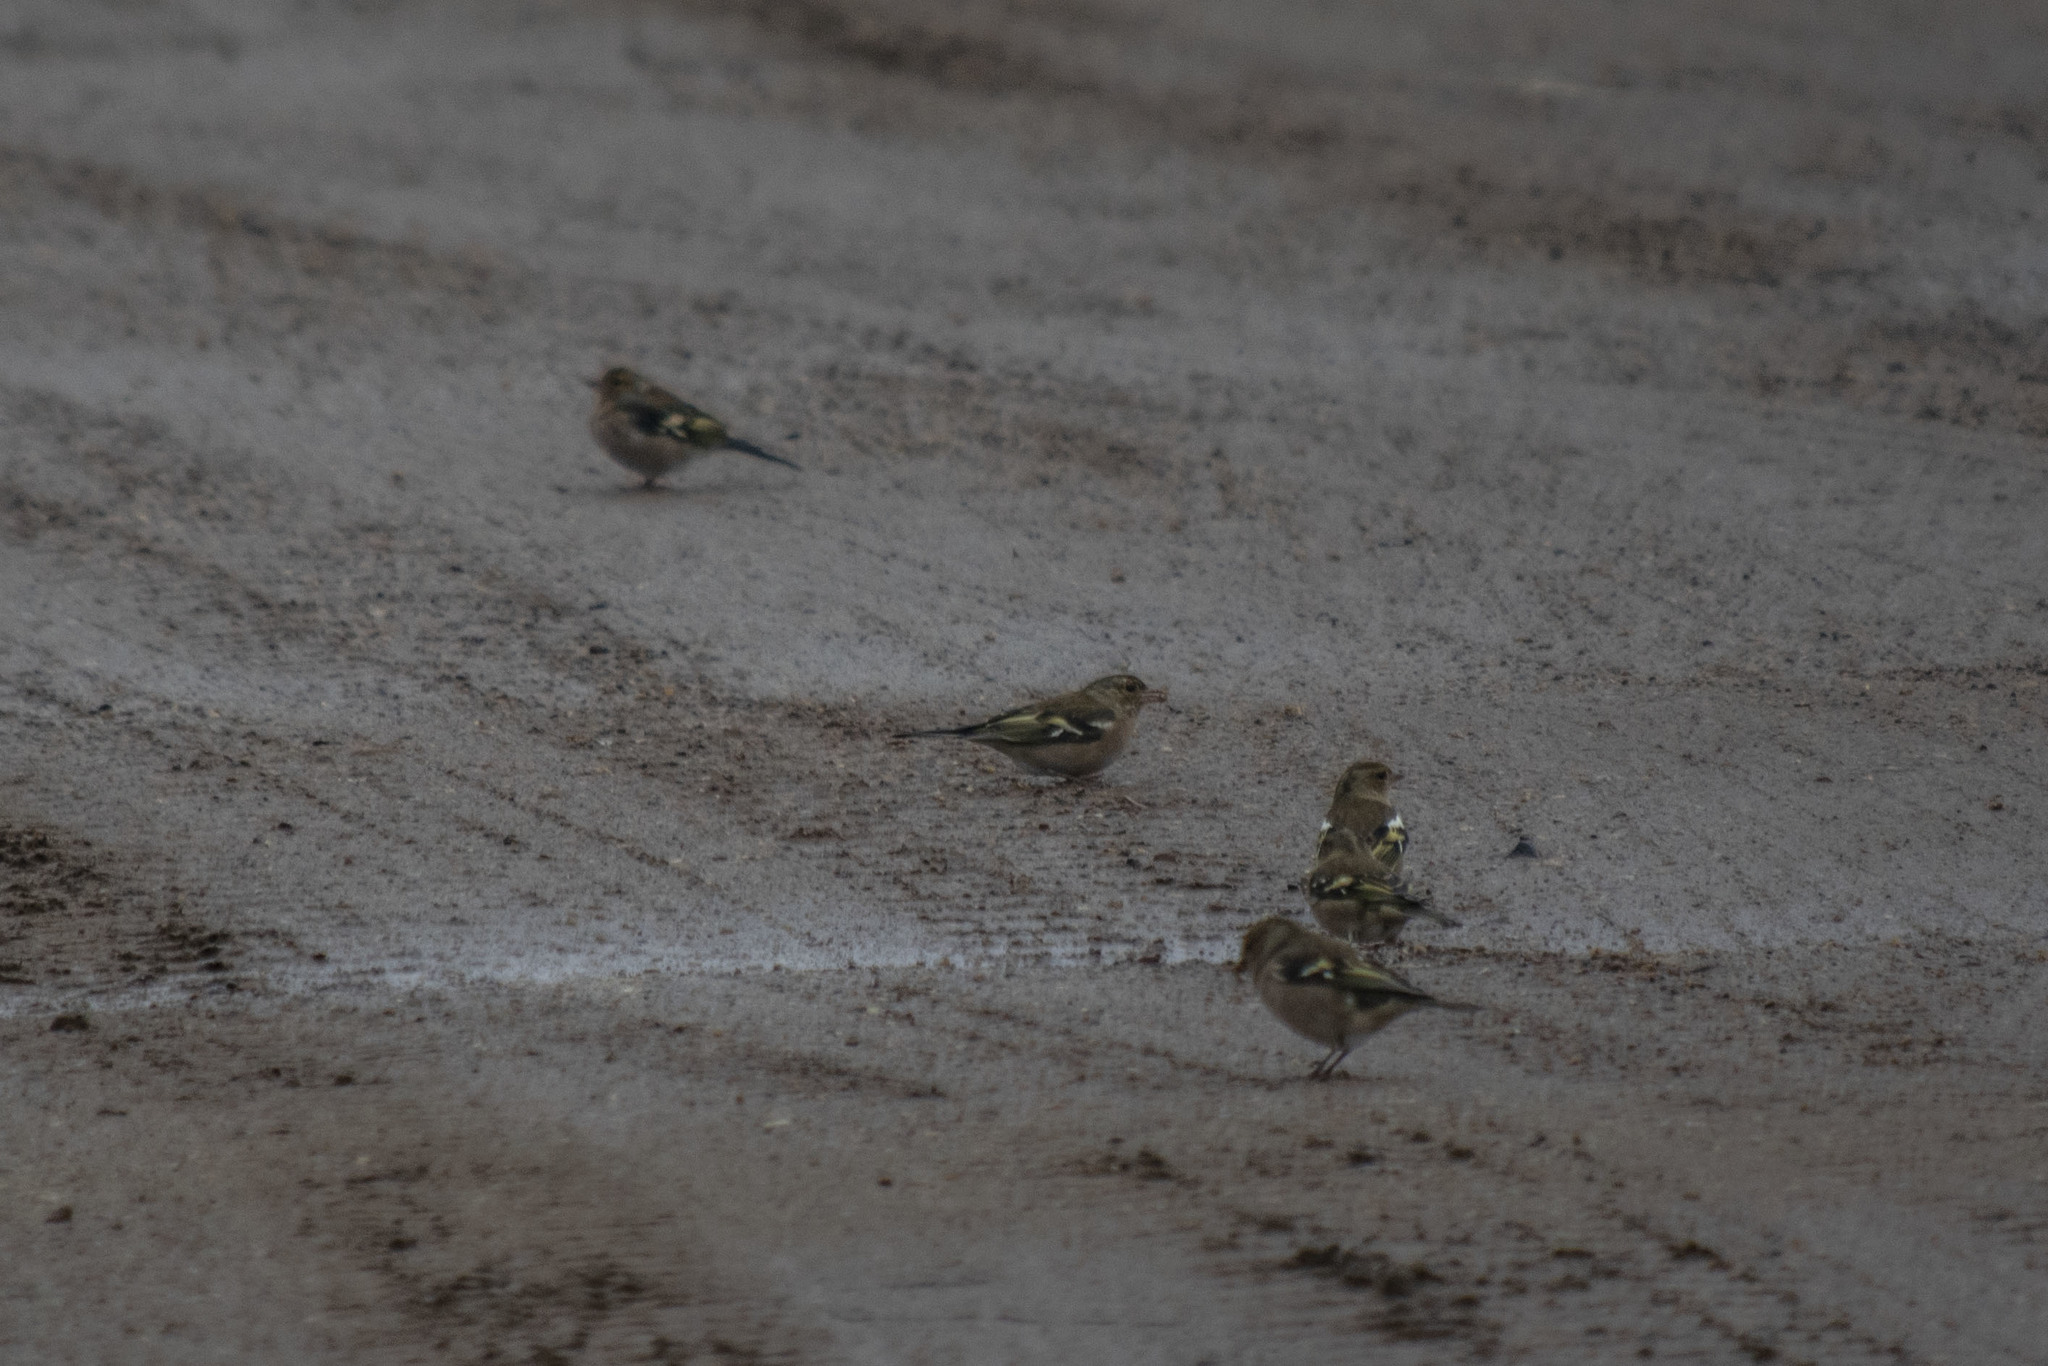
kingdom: Animalia
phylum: Chordata
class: Aves
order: Passeriformes
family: Fringillidae
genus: Fringilla
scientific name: Fringilla coelebs
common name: Common chaffinch
